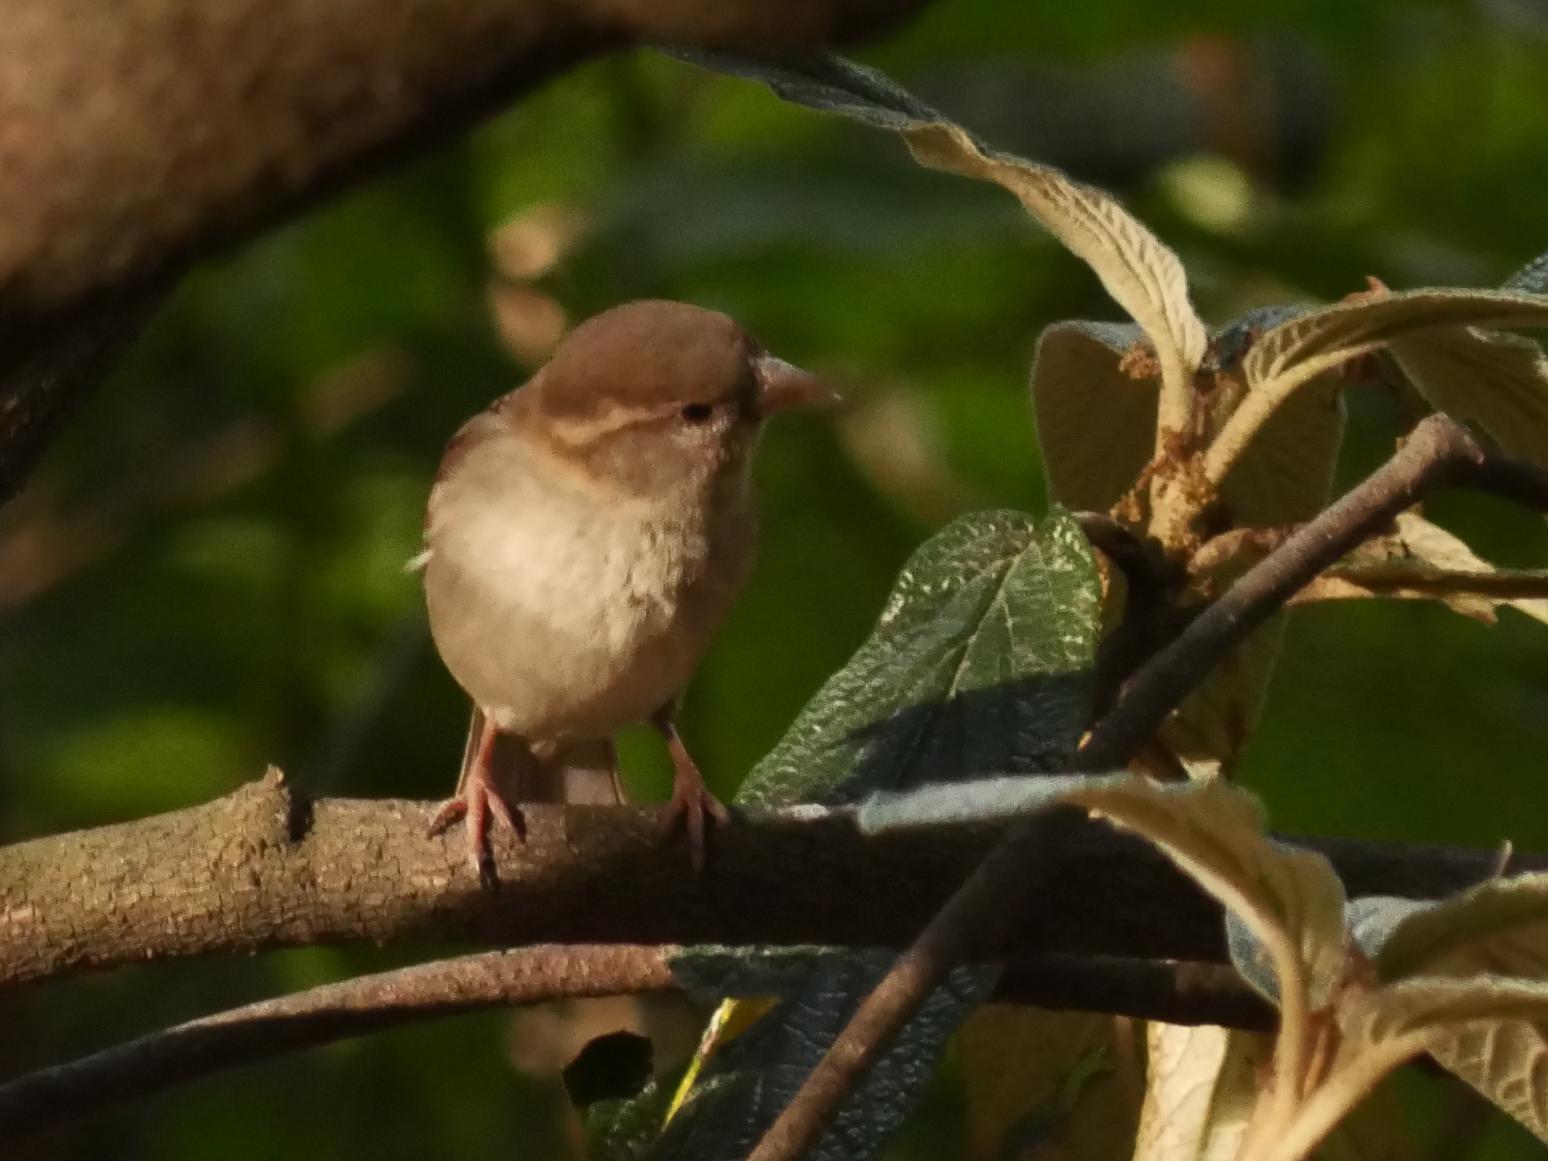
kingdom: Animalia
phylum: Chordata
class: Aves
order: Passeriformes
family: Passeridae
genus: Passer
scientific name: Passer domesticus
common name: House sparrow
